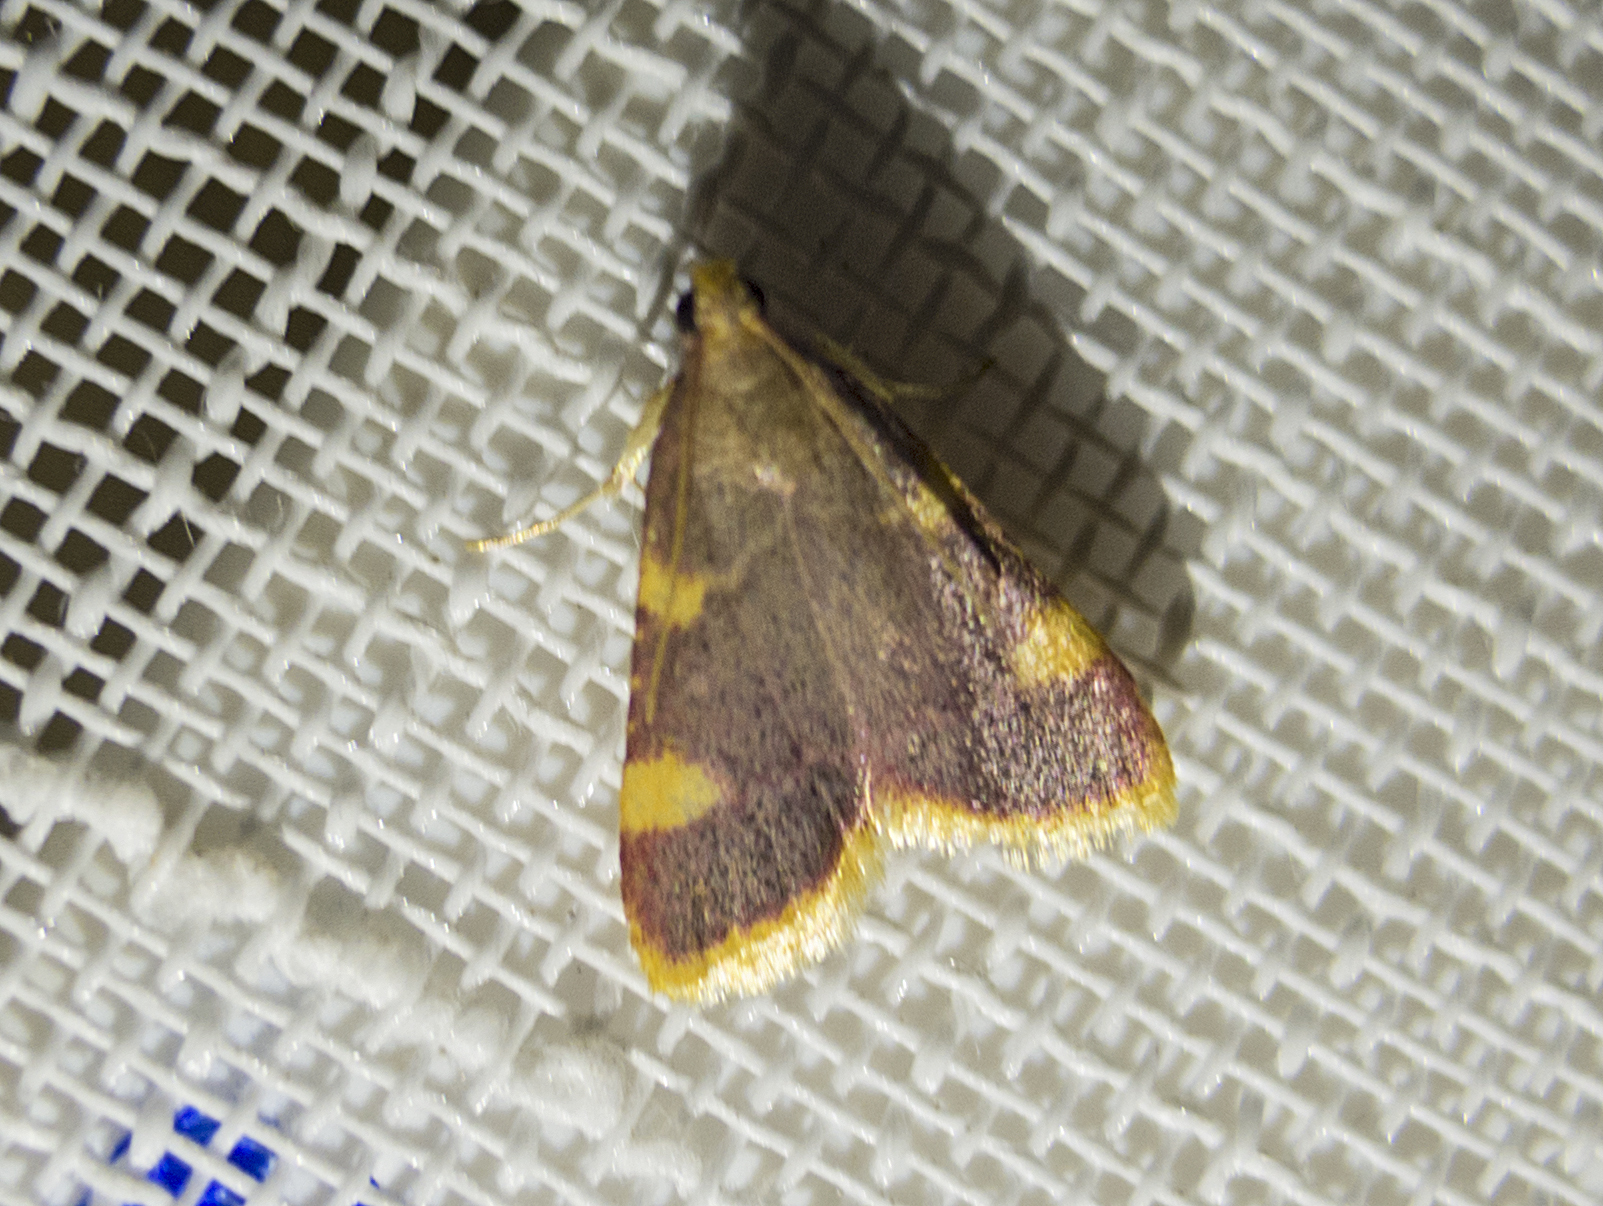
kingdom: Animalia
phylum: Arthropoda
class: Insecta
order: Lepidoptera
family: Pyralidae
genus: Hypsopygia
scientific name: Hypsopygia costalis
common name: Gold triangle
